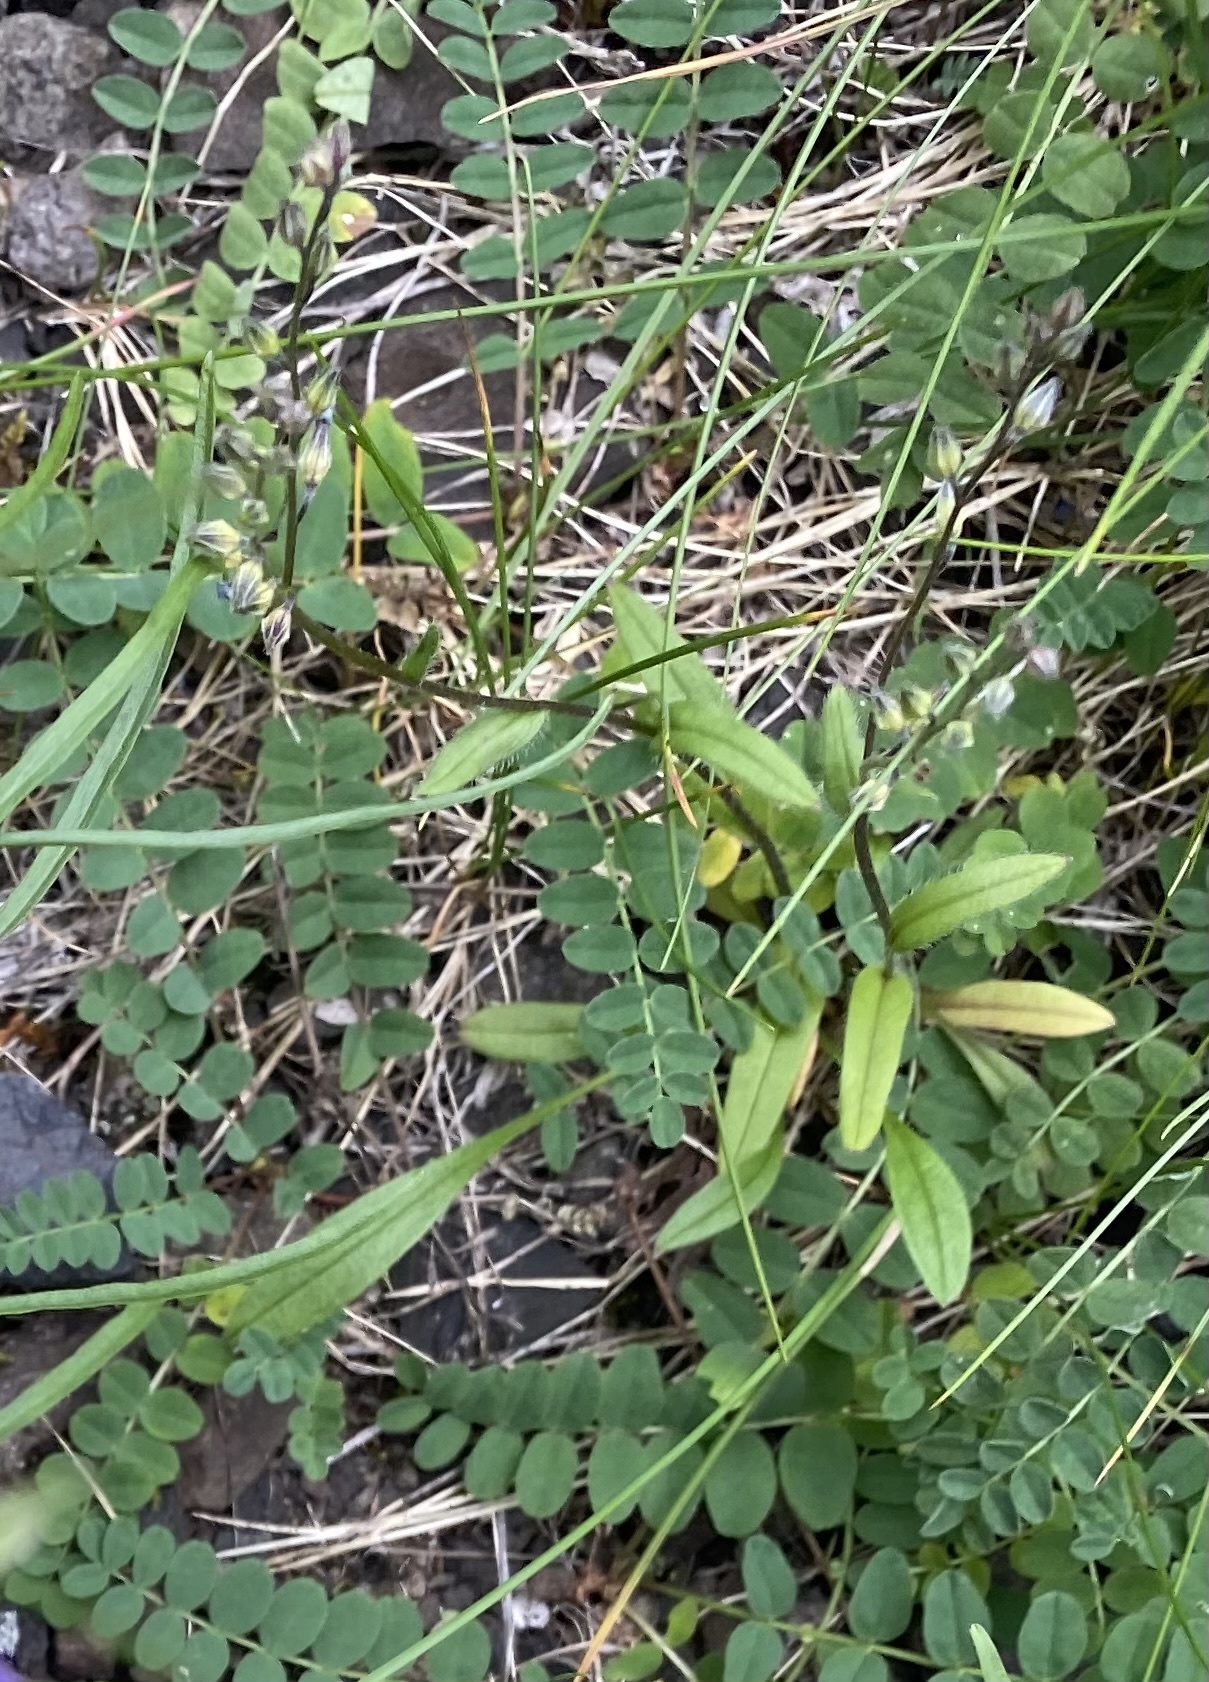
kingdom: Plantae
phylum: Tracheophyta
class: Magnoliopsida
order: Boraginales
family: Boraginaceae
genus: Myosotis
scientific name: Myosotis asiatica
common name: Asian forget-me-not
